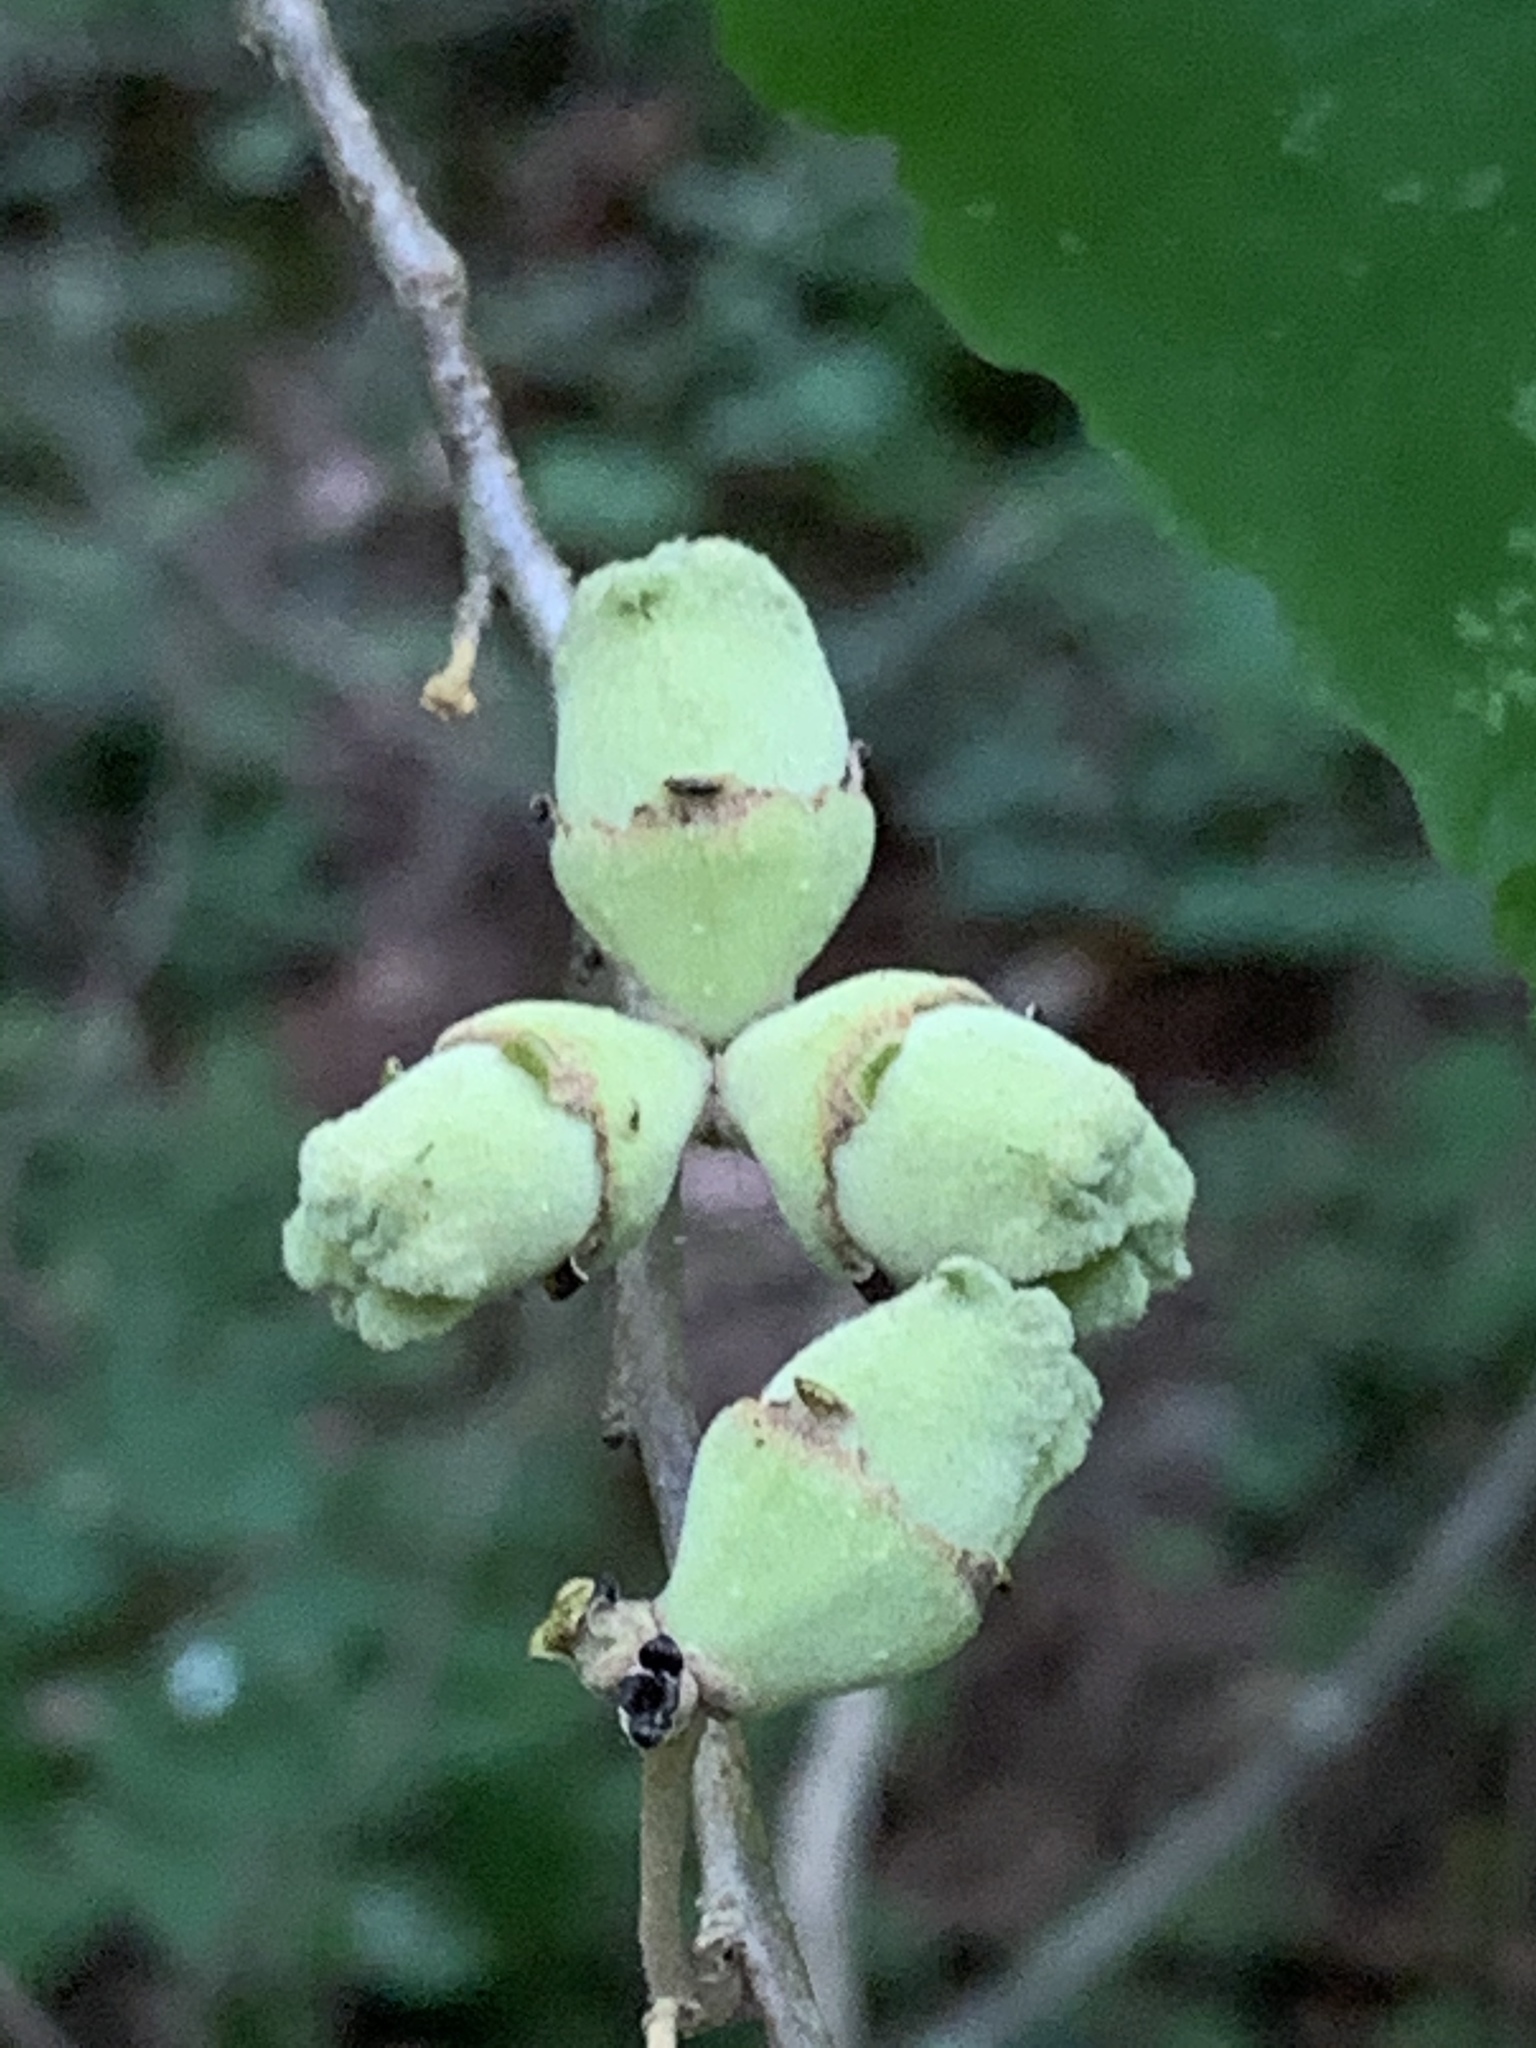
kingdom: Plantae
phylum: Tracheophyta
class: Magnoliopsida
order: Saxifragales
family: Hamamelidaceae
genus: Hamamelis
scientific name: Hamamelis virginiana
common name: Witch-hazel
